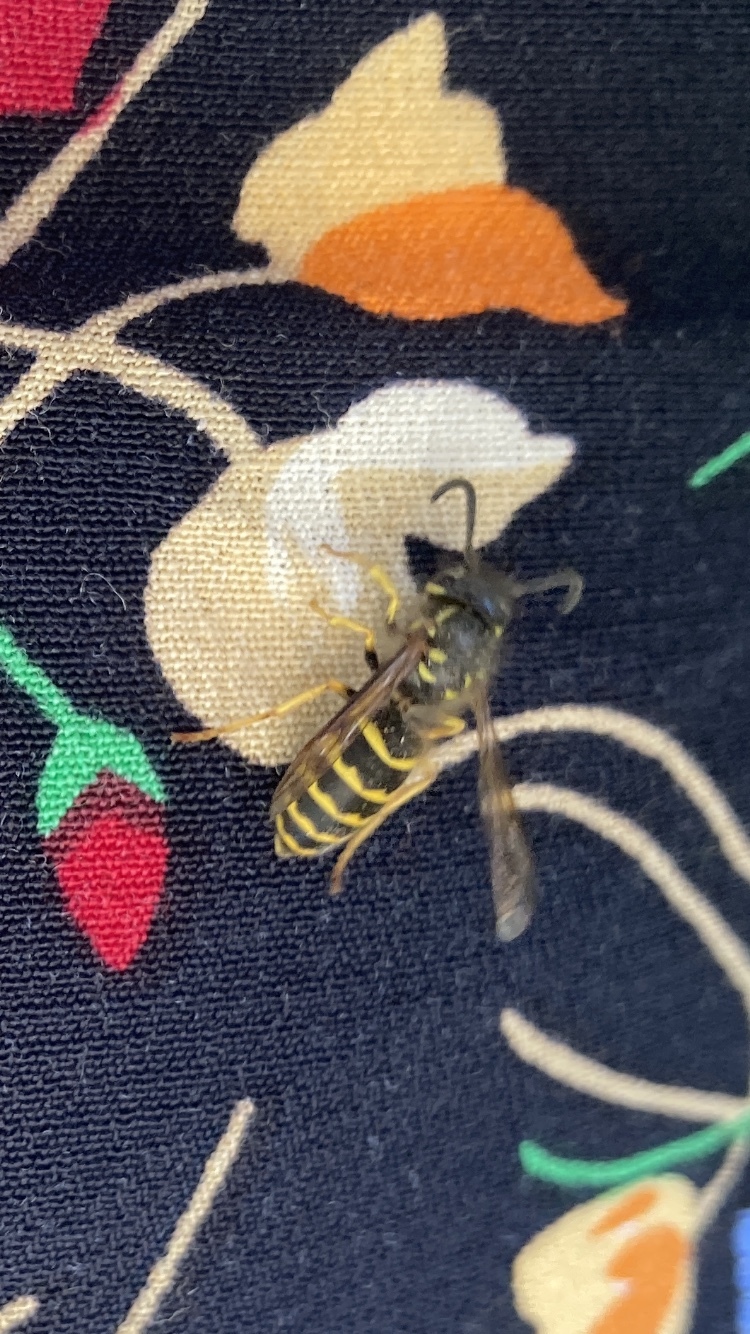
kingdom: Animalia
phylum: Arthropoda
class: Insecta
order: Hymenoptera
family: Vespidae
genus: Vespula
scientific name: Vespula alascensis
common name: Alaska yellowjacket
